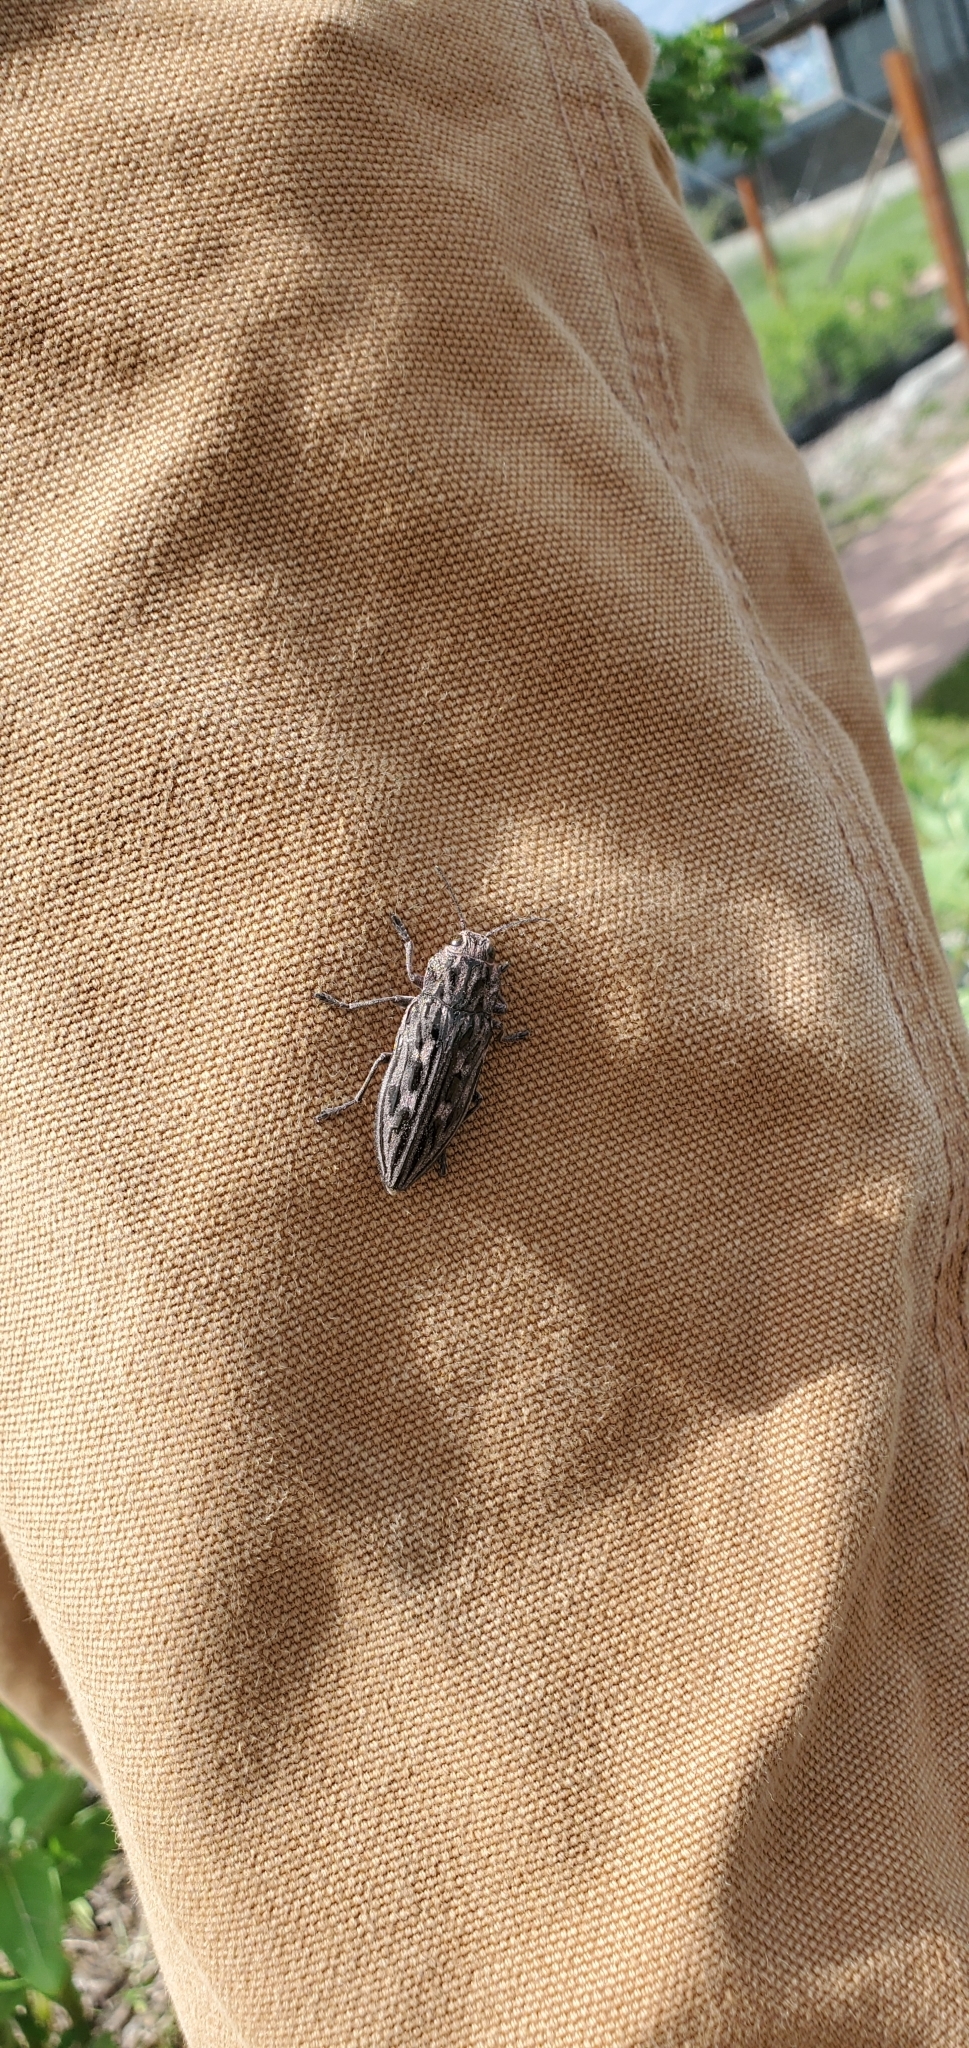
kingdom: Animalia
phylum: Arthropoda
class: Insecta
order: Coleoptera
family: Buprestidae
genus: Chalcophora
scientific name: Chalcophora angulicollis
